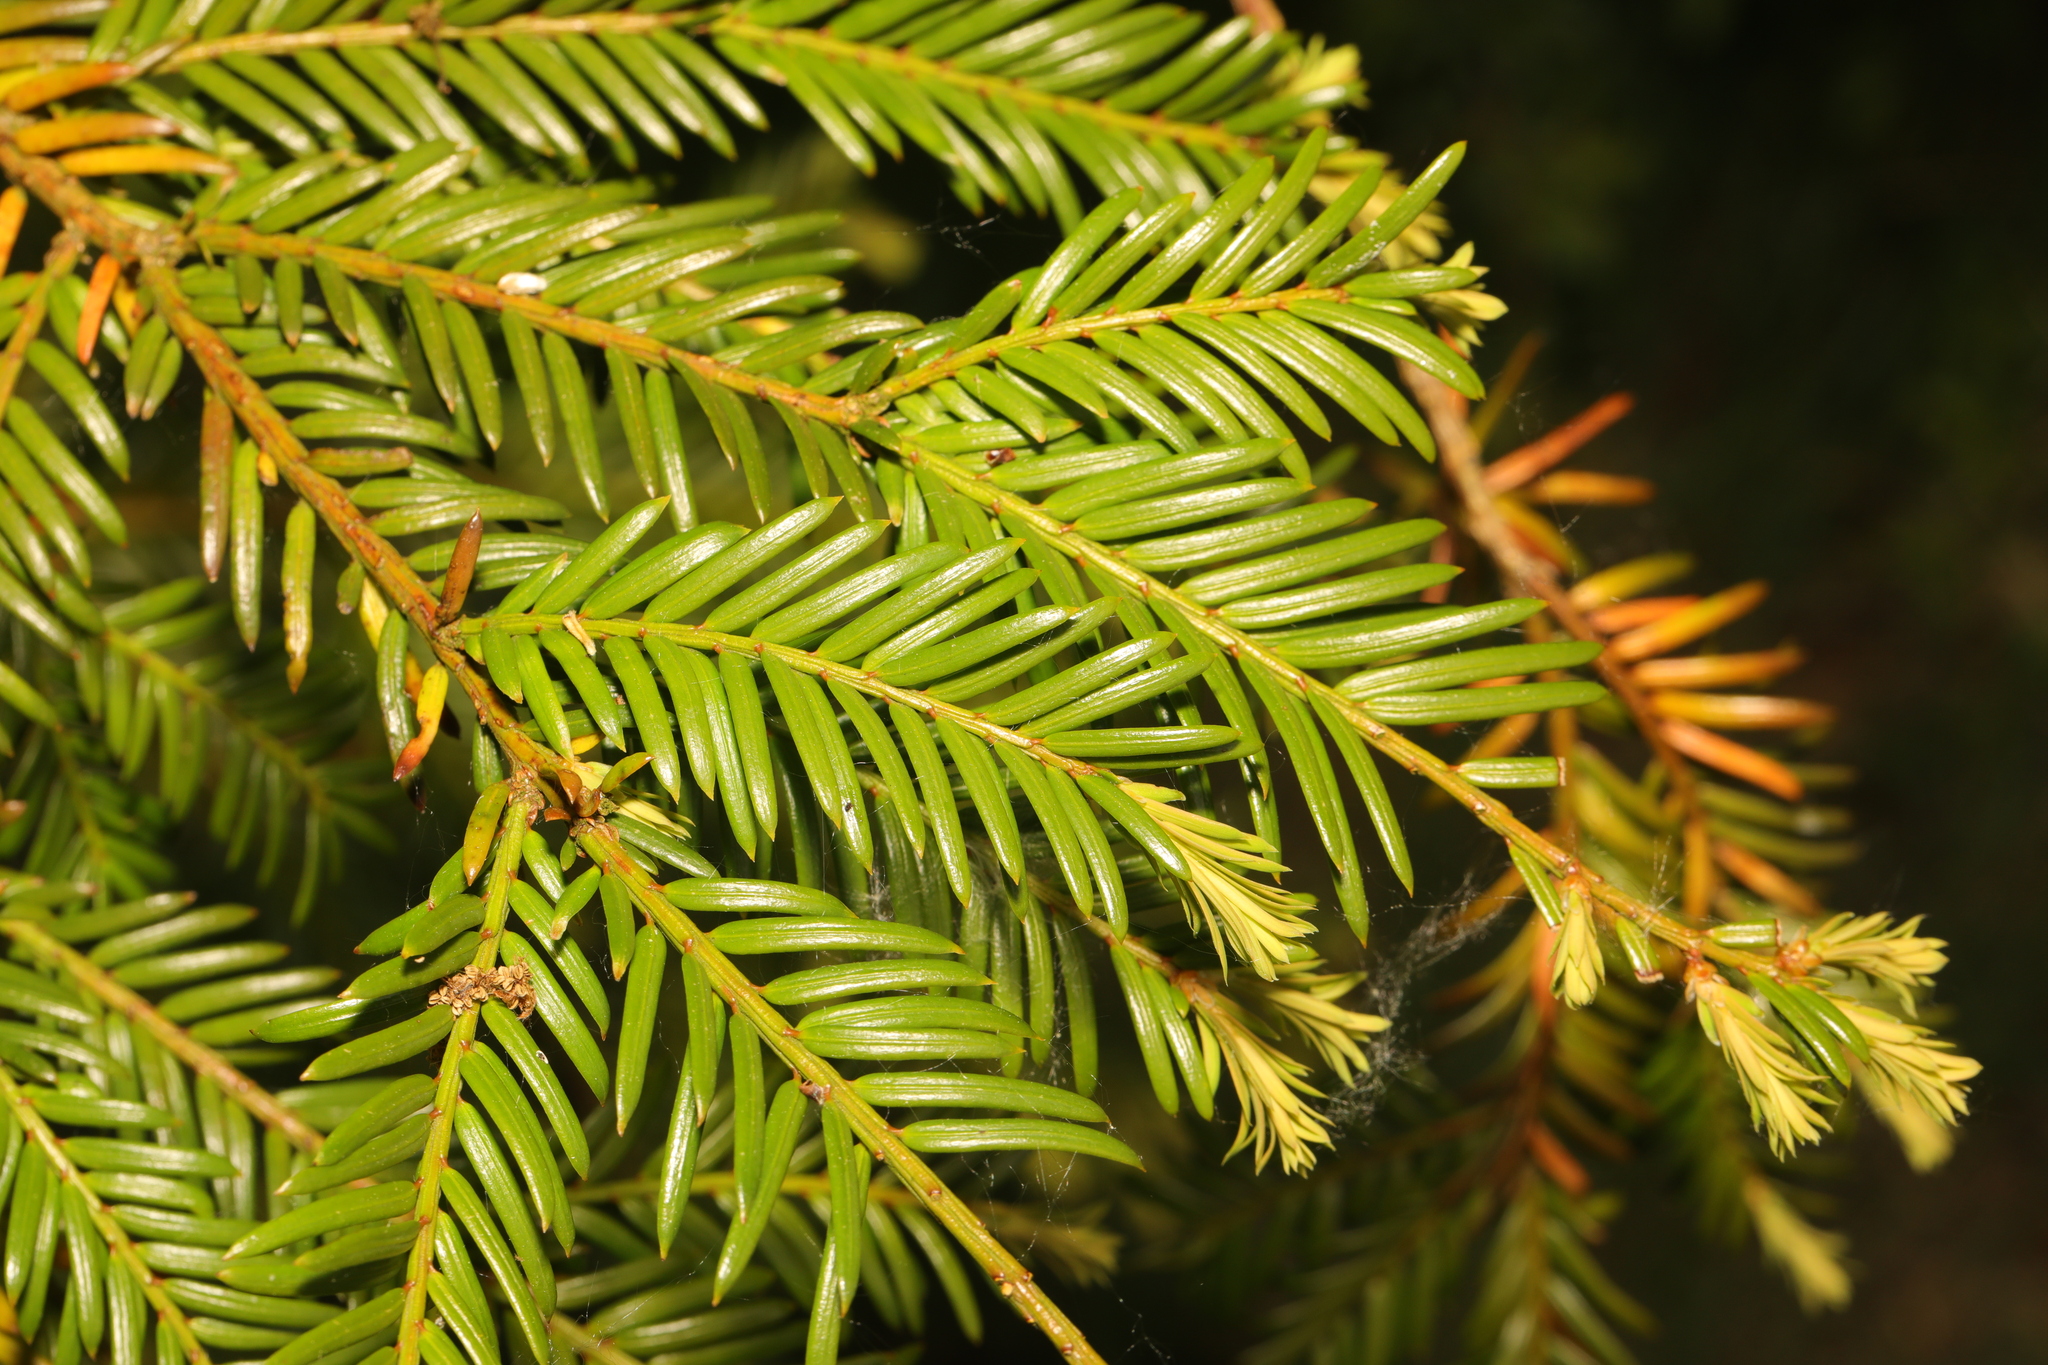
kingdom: Plantae
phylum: Tracheophyta
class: Pinopsida
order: Pinales
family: Taxaceae
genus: Taxus
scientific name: Taxus baccata
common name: Yew
